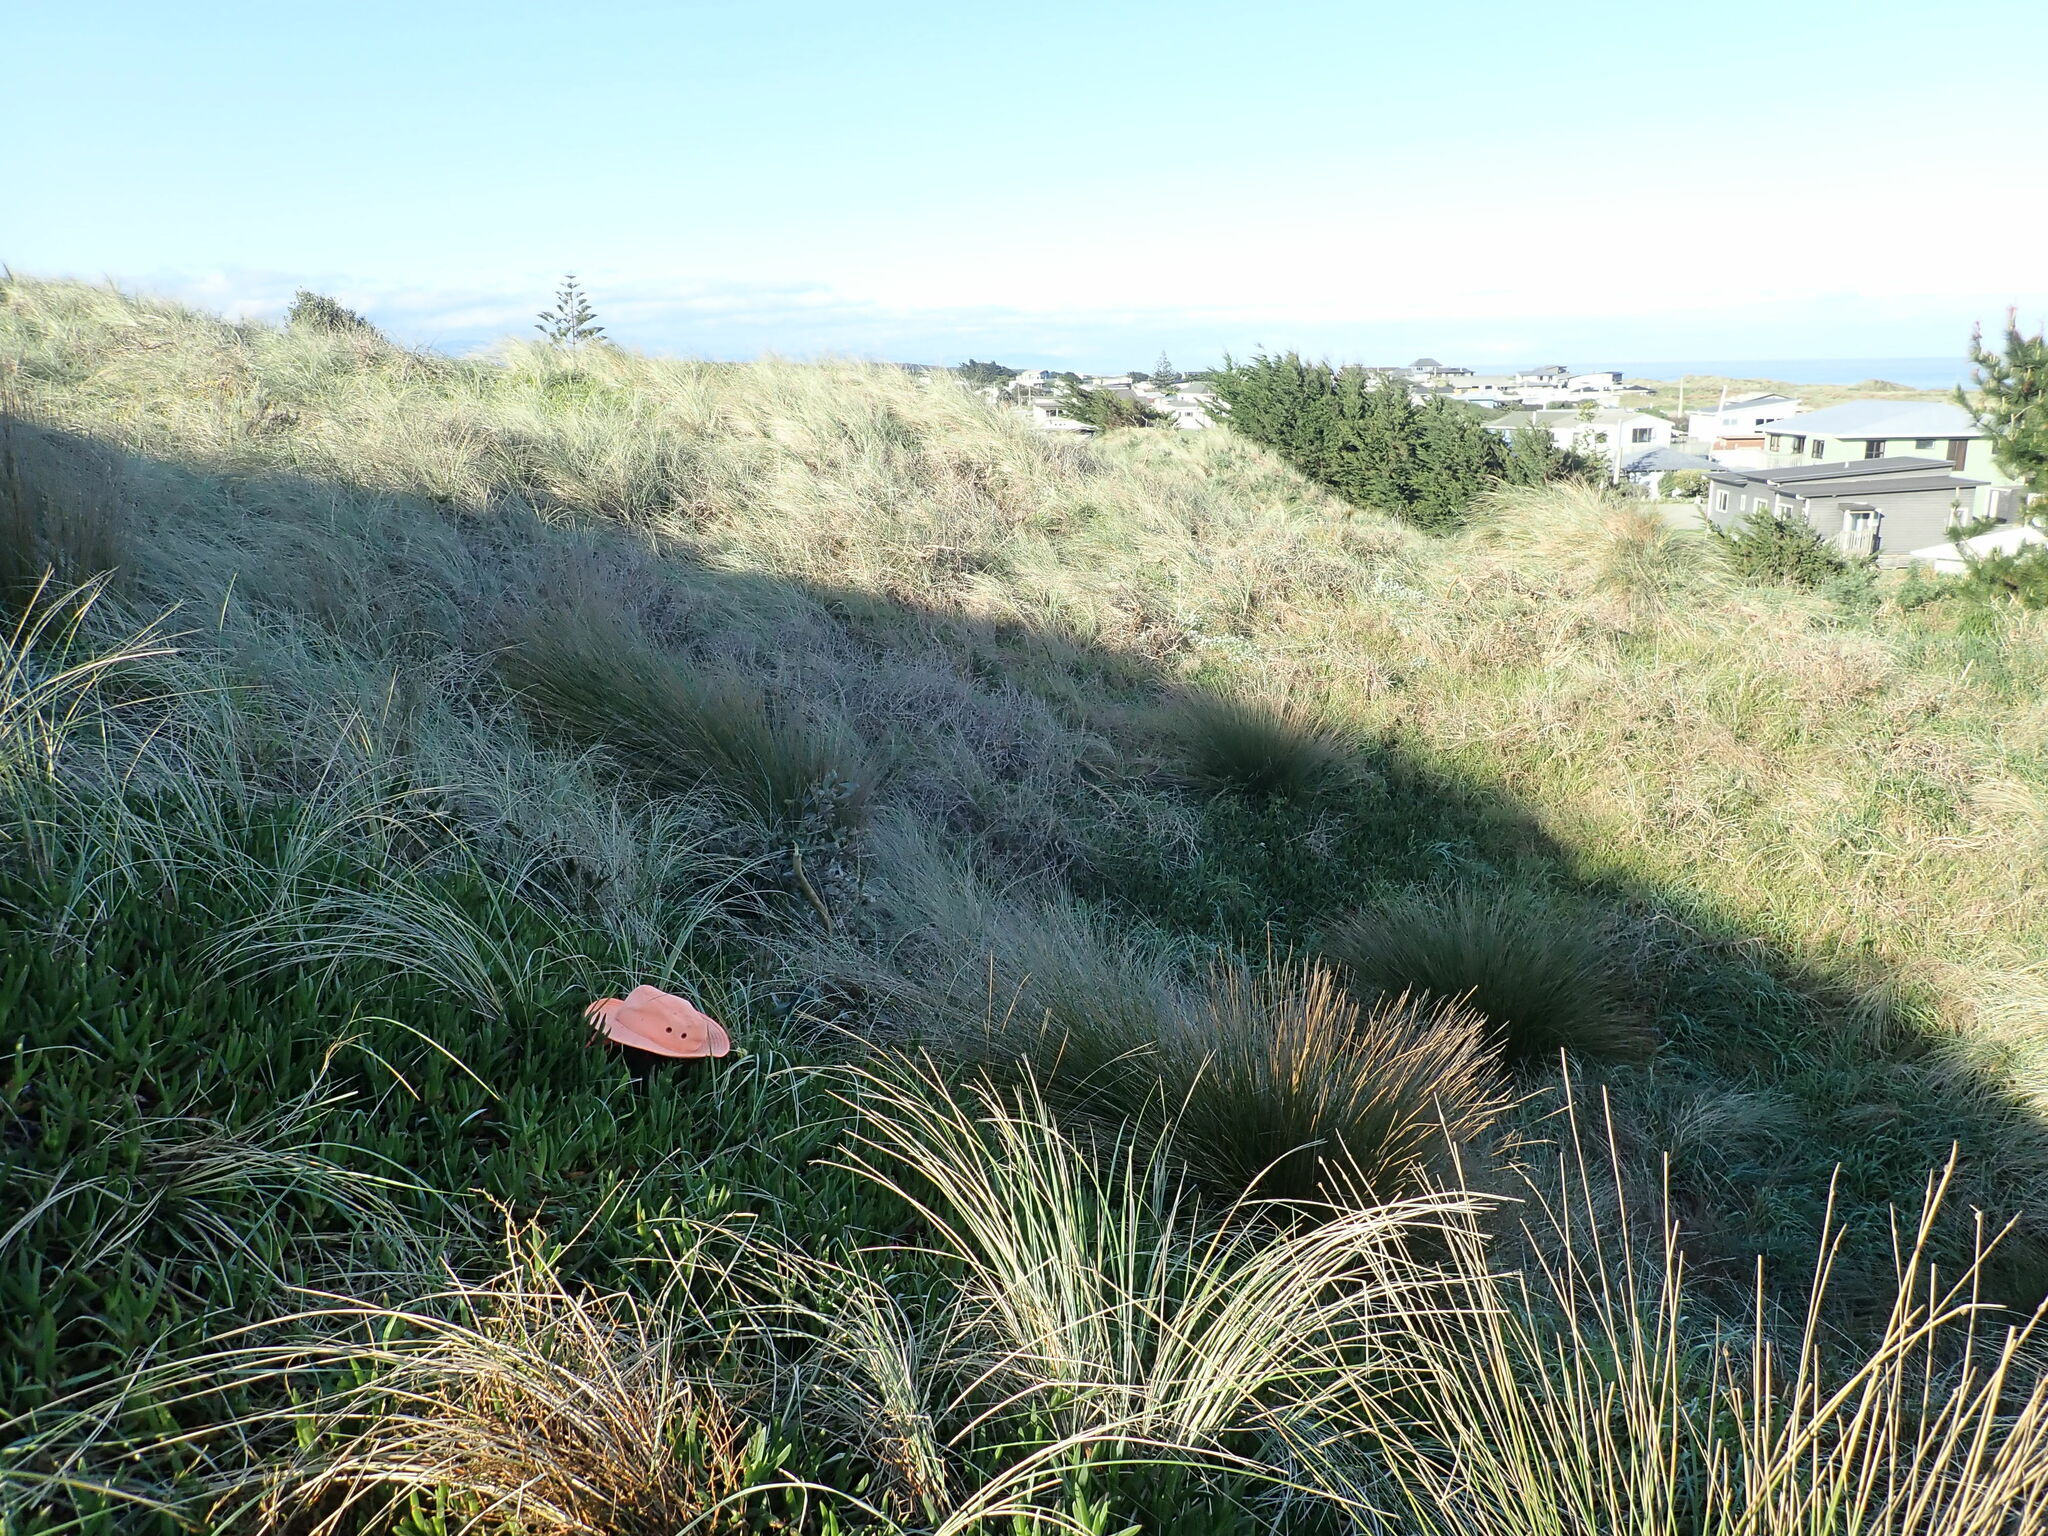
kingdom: Plantae
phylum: Tracheophyta
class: Magnoliopsida
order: Caryophyllales
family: Aizoaceae
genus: Carpobrotus
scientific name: Carpobrotus edulis
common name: Hottentot-fig
